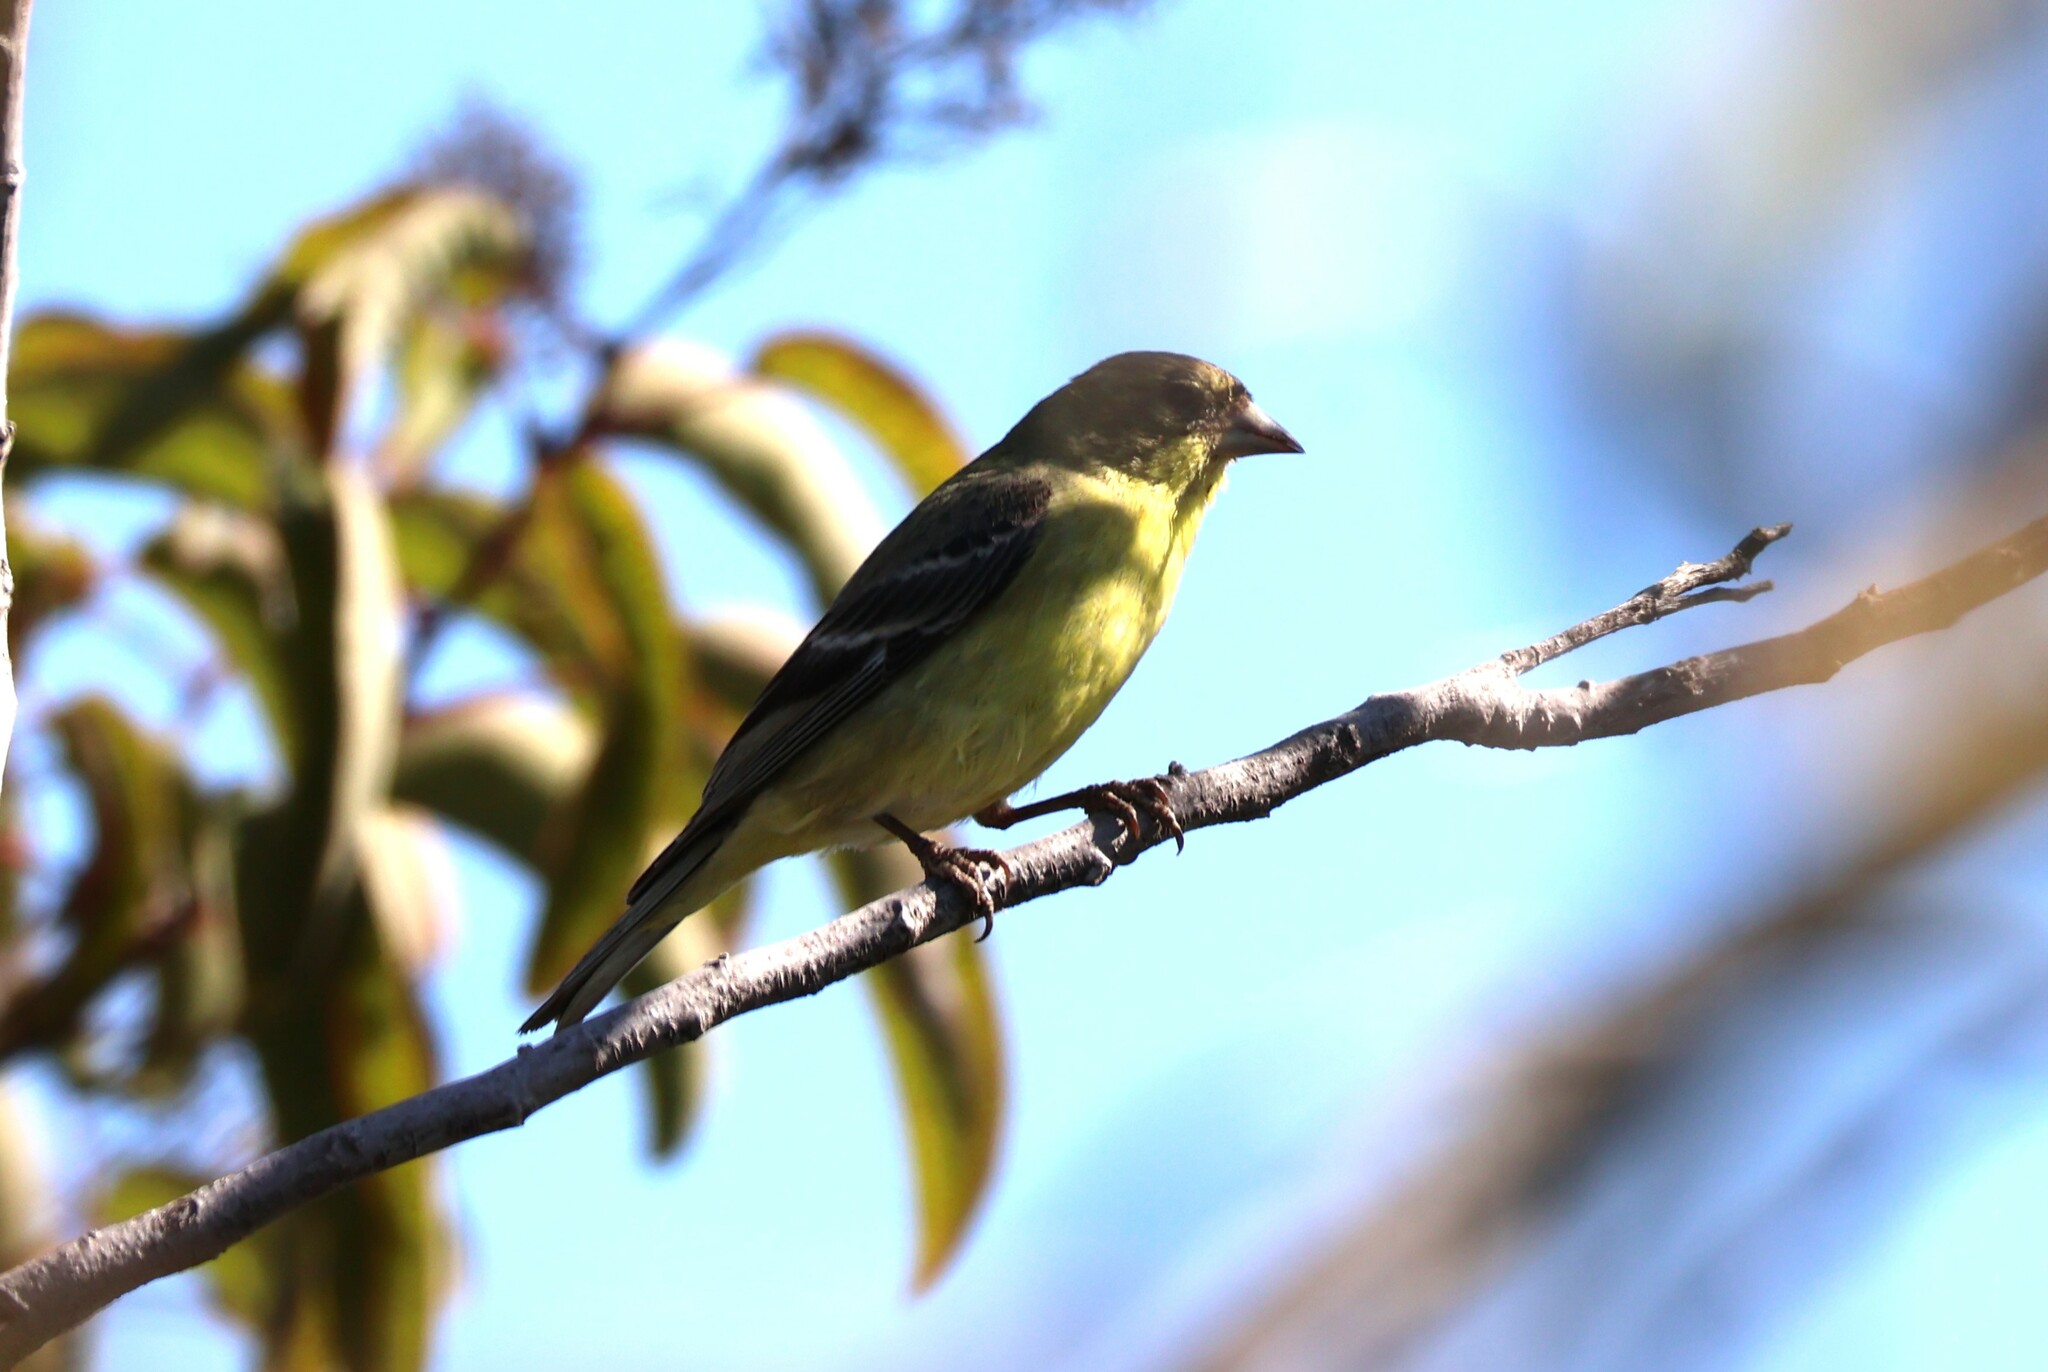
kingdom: Animalia
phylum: Chordata
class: Aves
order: Passeriformes
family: Fringillidae
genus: Spinus
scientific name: Spinus psaltria
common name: Lesser goldfinch
